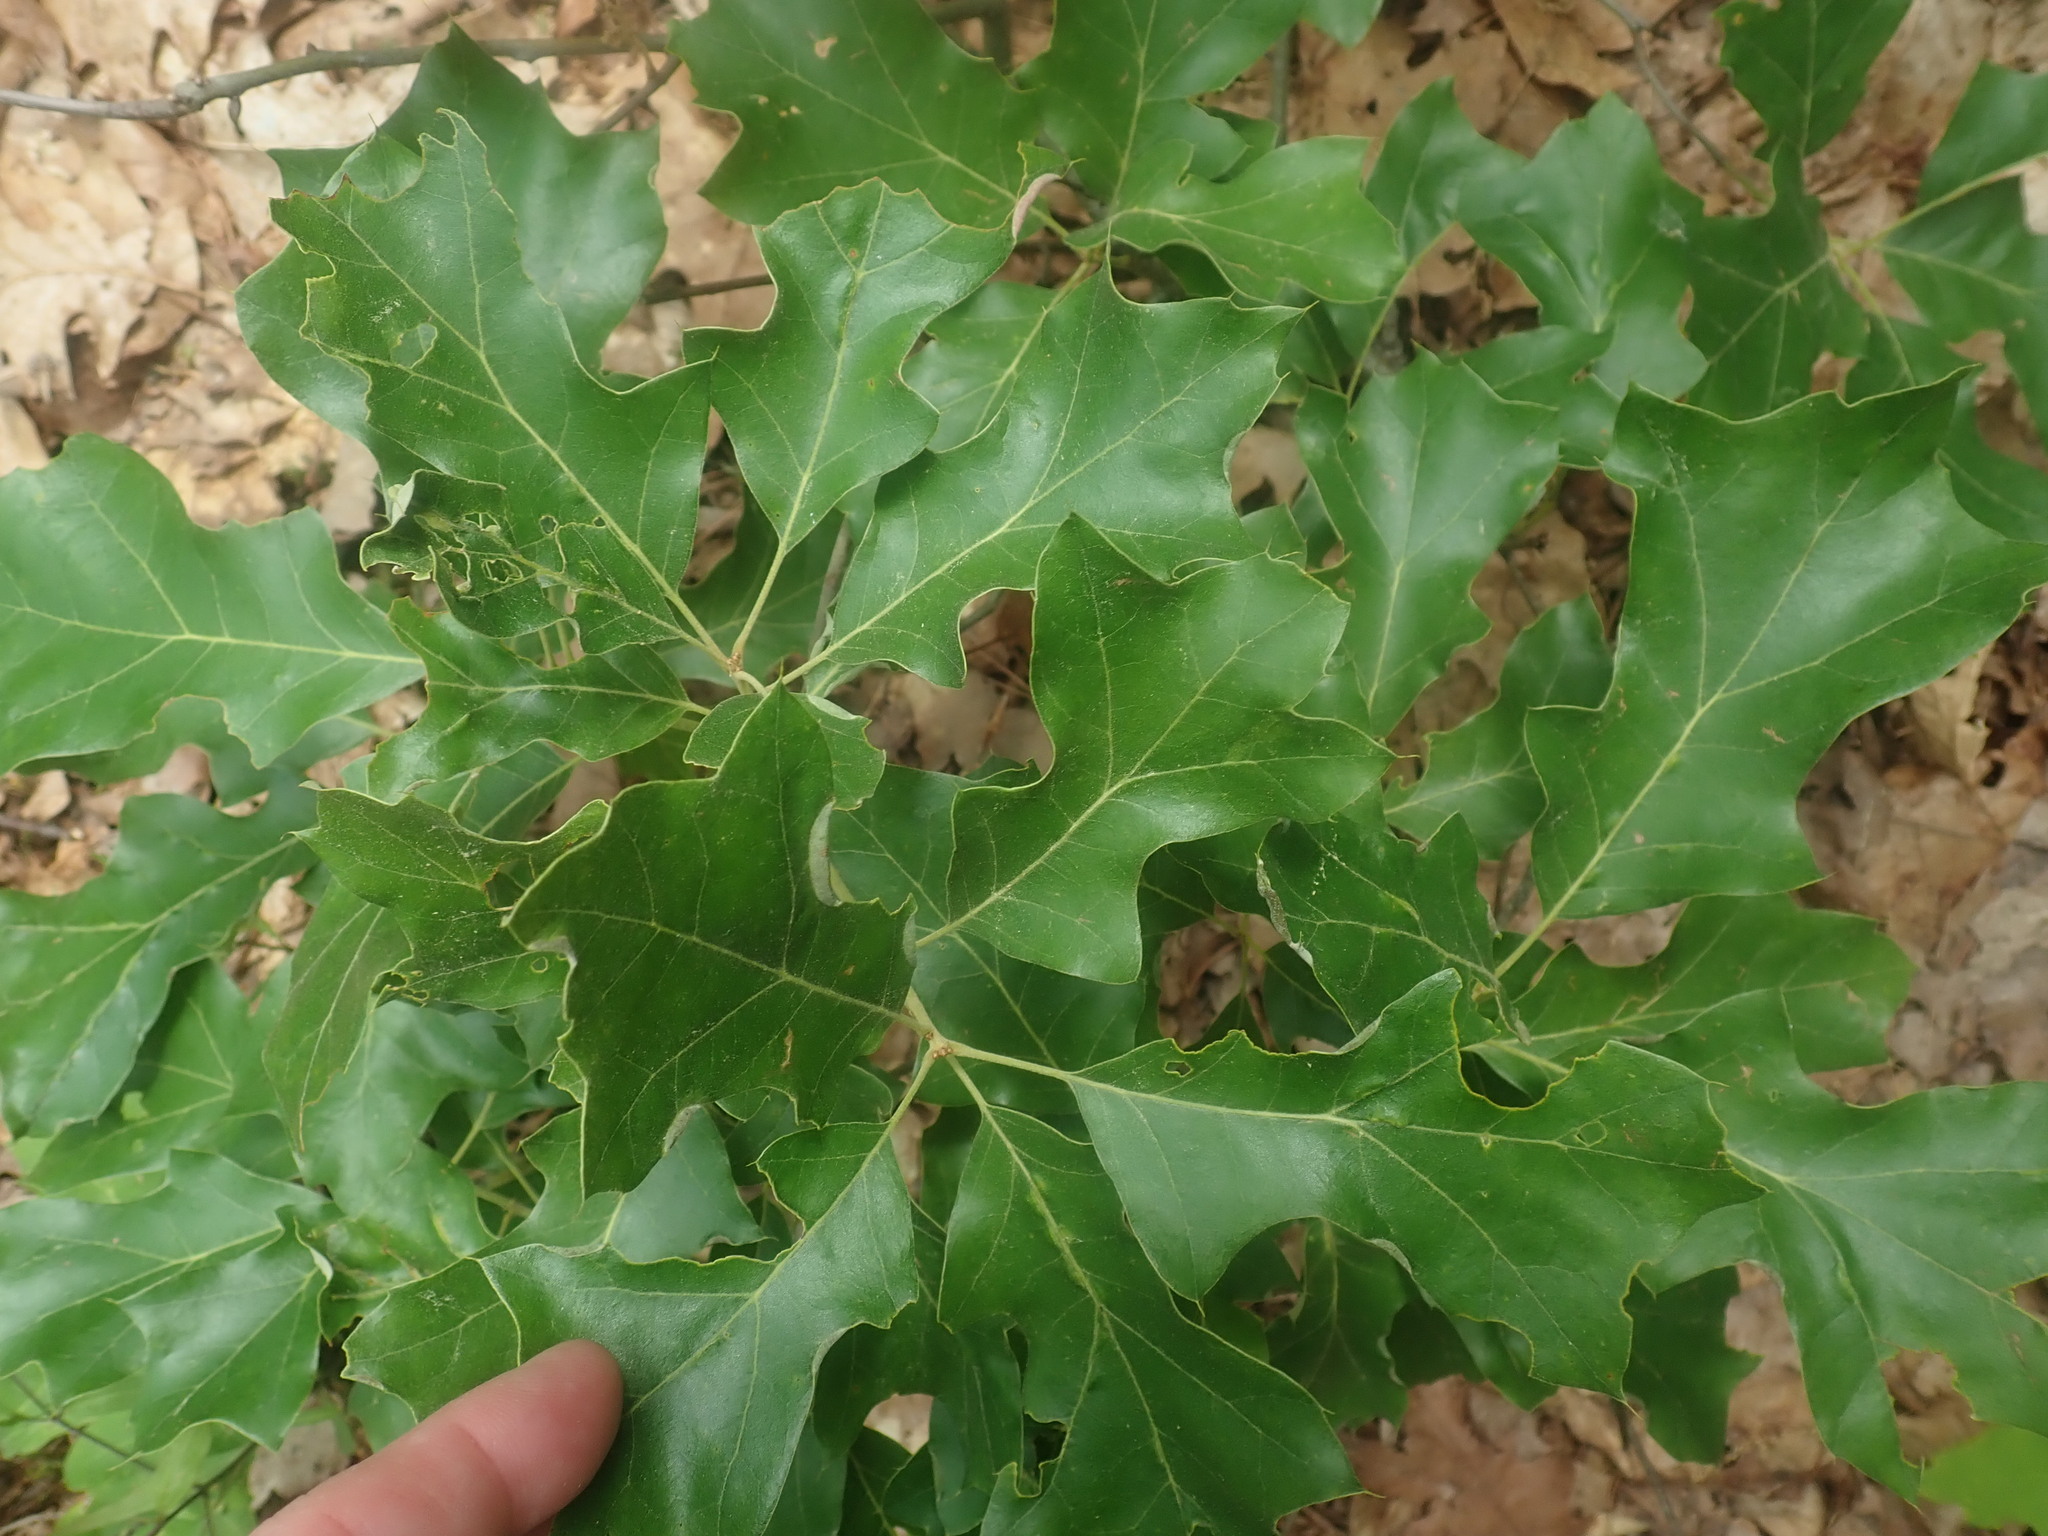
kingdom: Plantae
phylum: Tracheophyta
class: Magnoliopsida
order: Fagales
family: Fagaceae
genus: Quercus
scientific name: Quercus ilicifolia
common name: Bear oak
